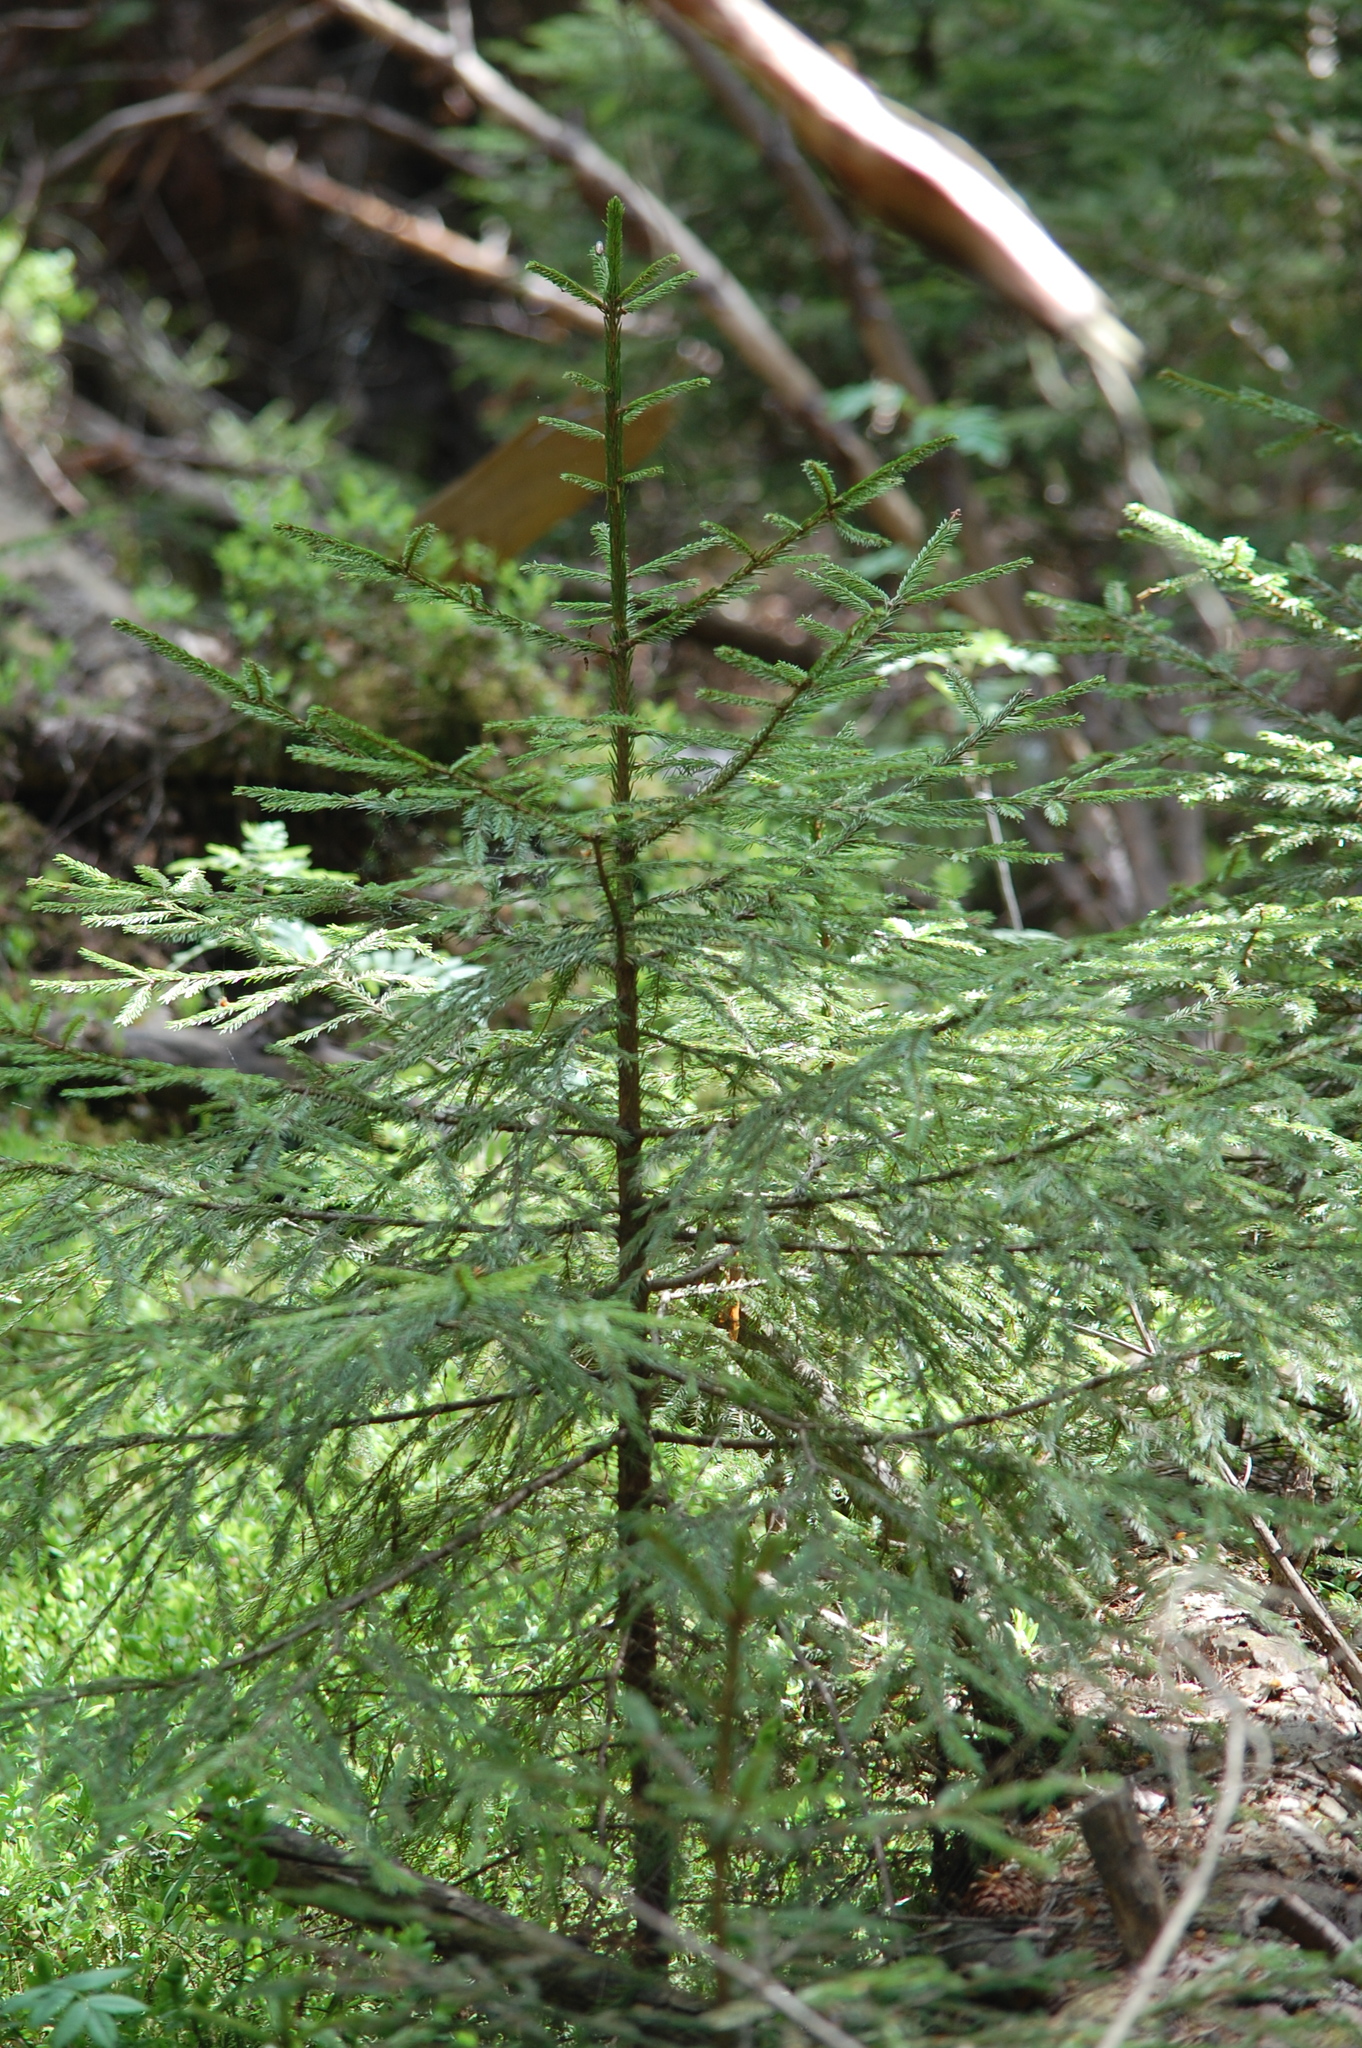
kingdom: Plantae
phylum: Tracheophyta
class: Pinopsida
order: Pinales
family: Pinaceae
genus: Picea
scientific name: Picea abies
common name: Norway spruce
